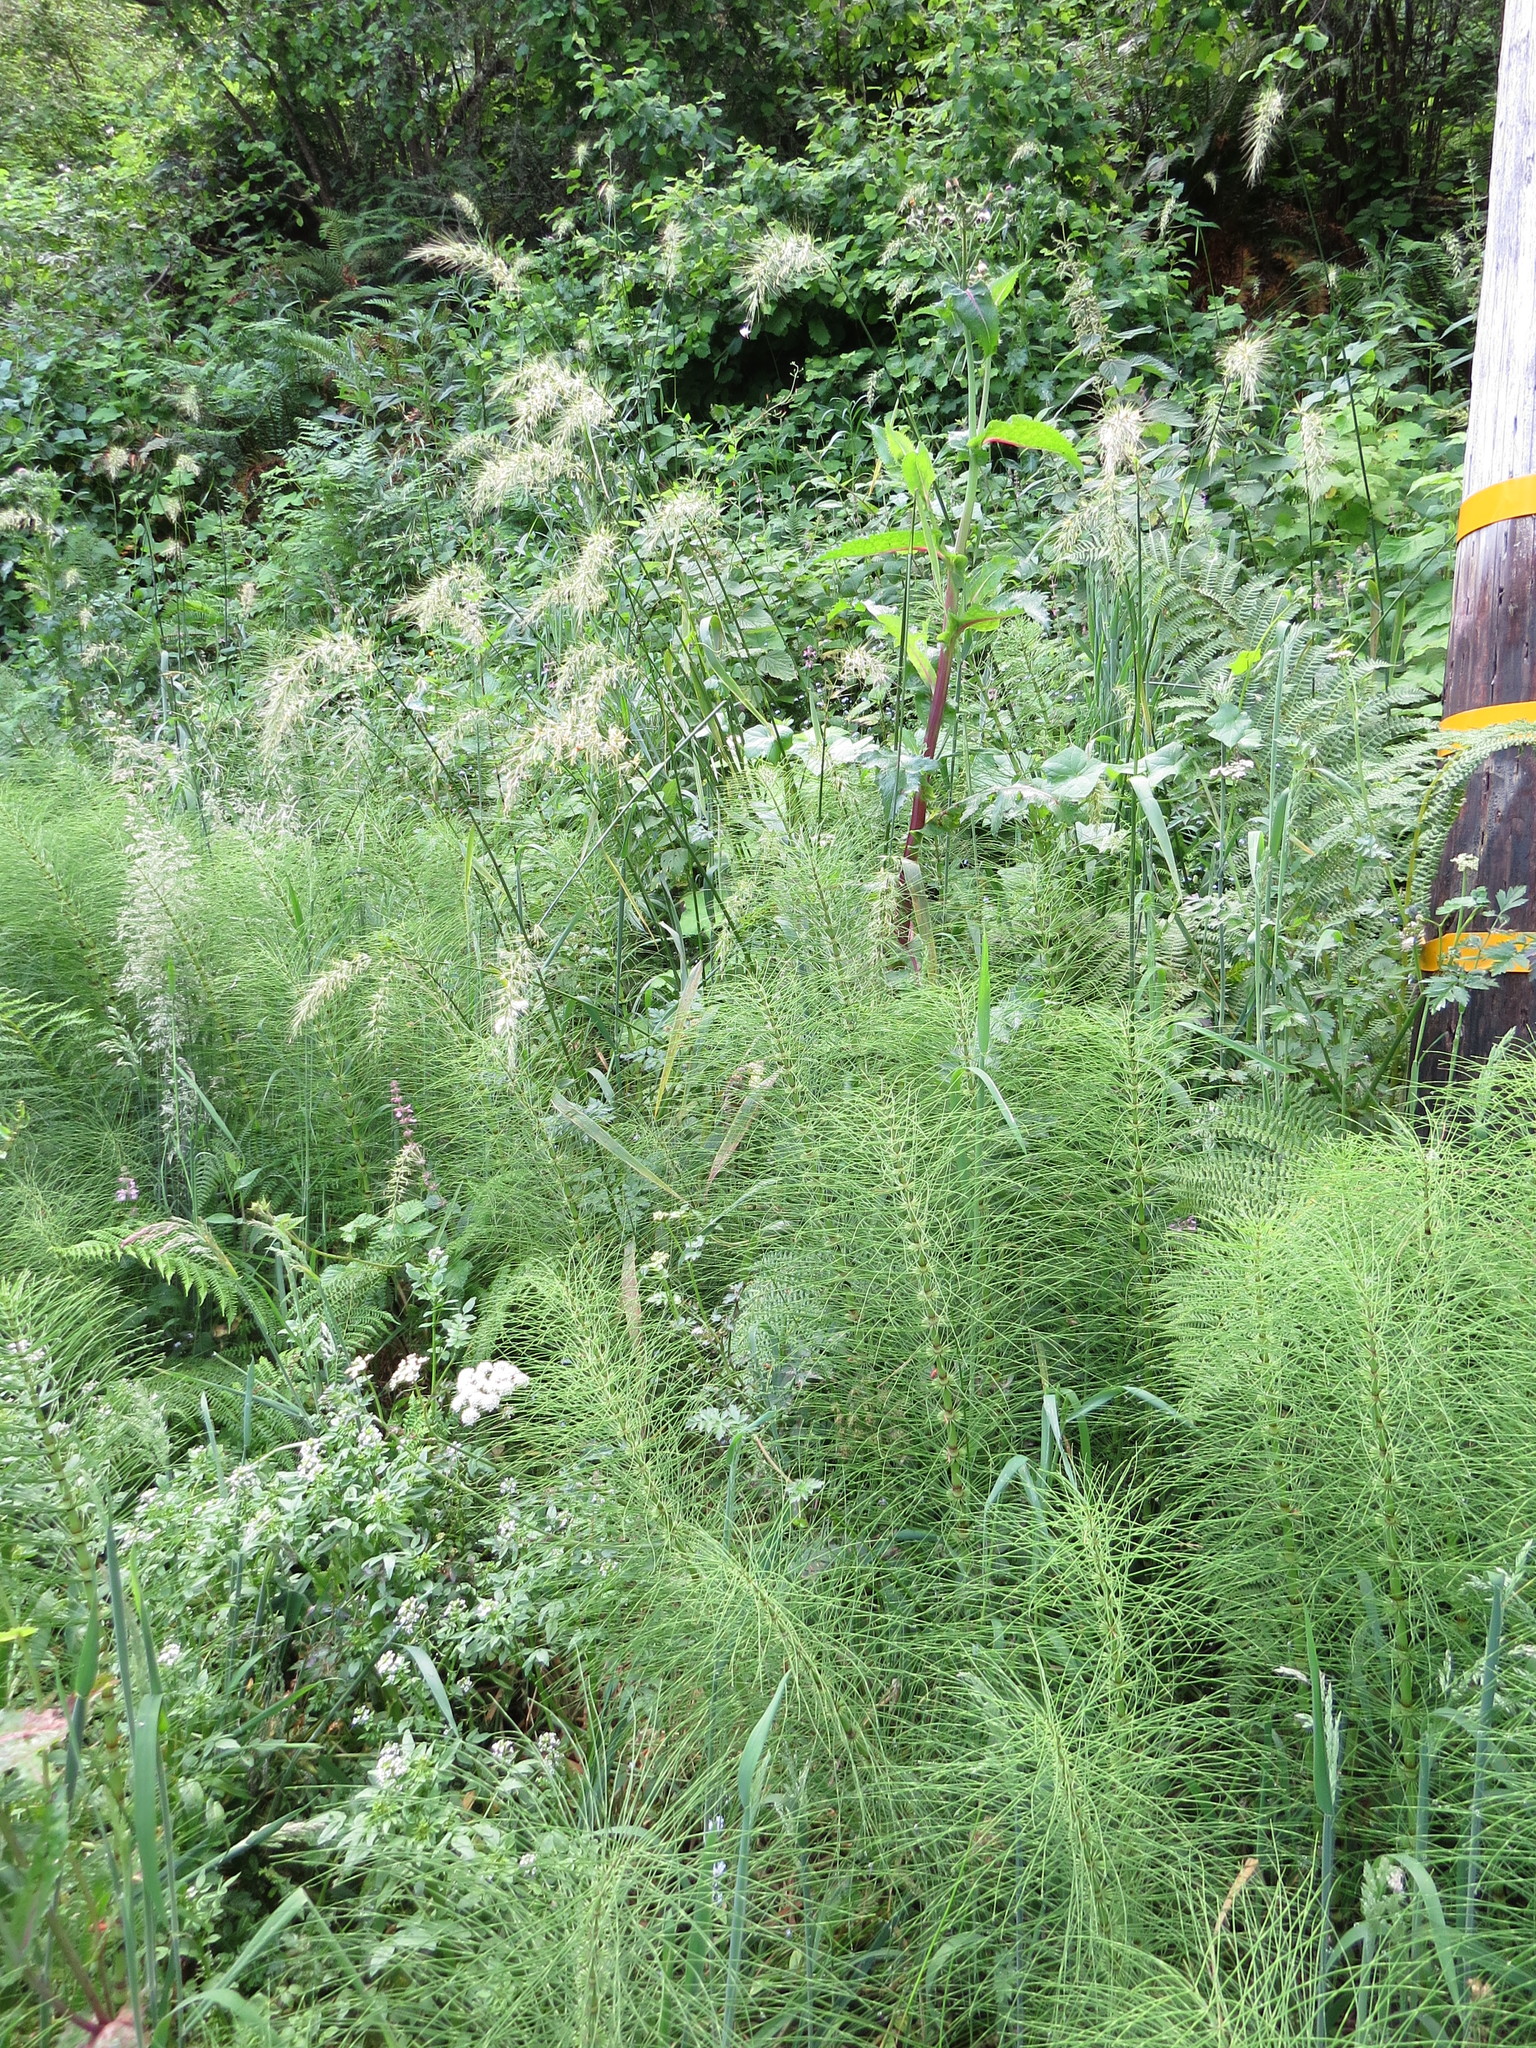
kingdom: Plantae
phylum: Tracheophyta
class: Liliopsida
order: Poales
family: Poaceae
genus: Elymus
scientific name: Elymus californicus
